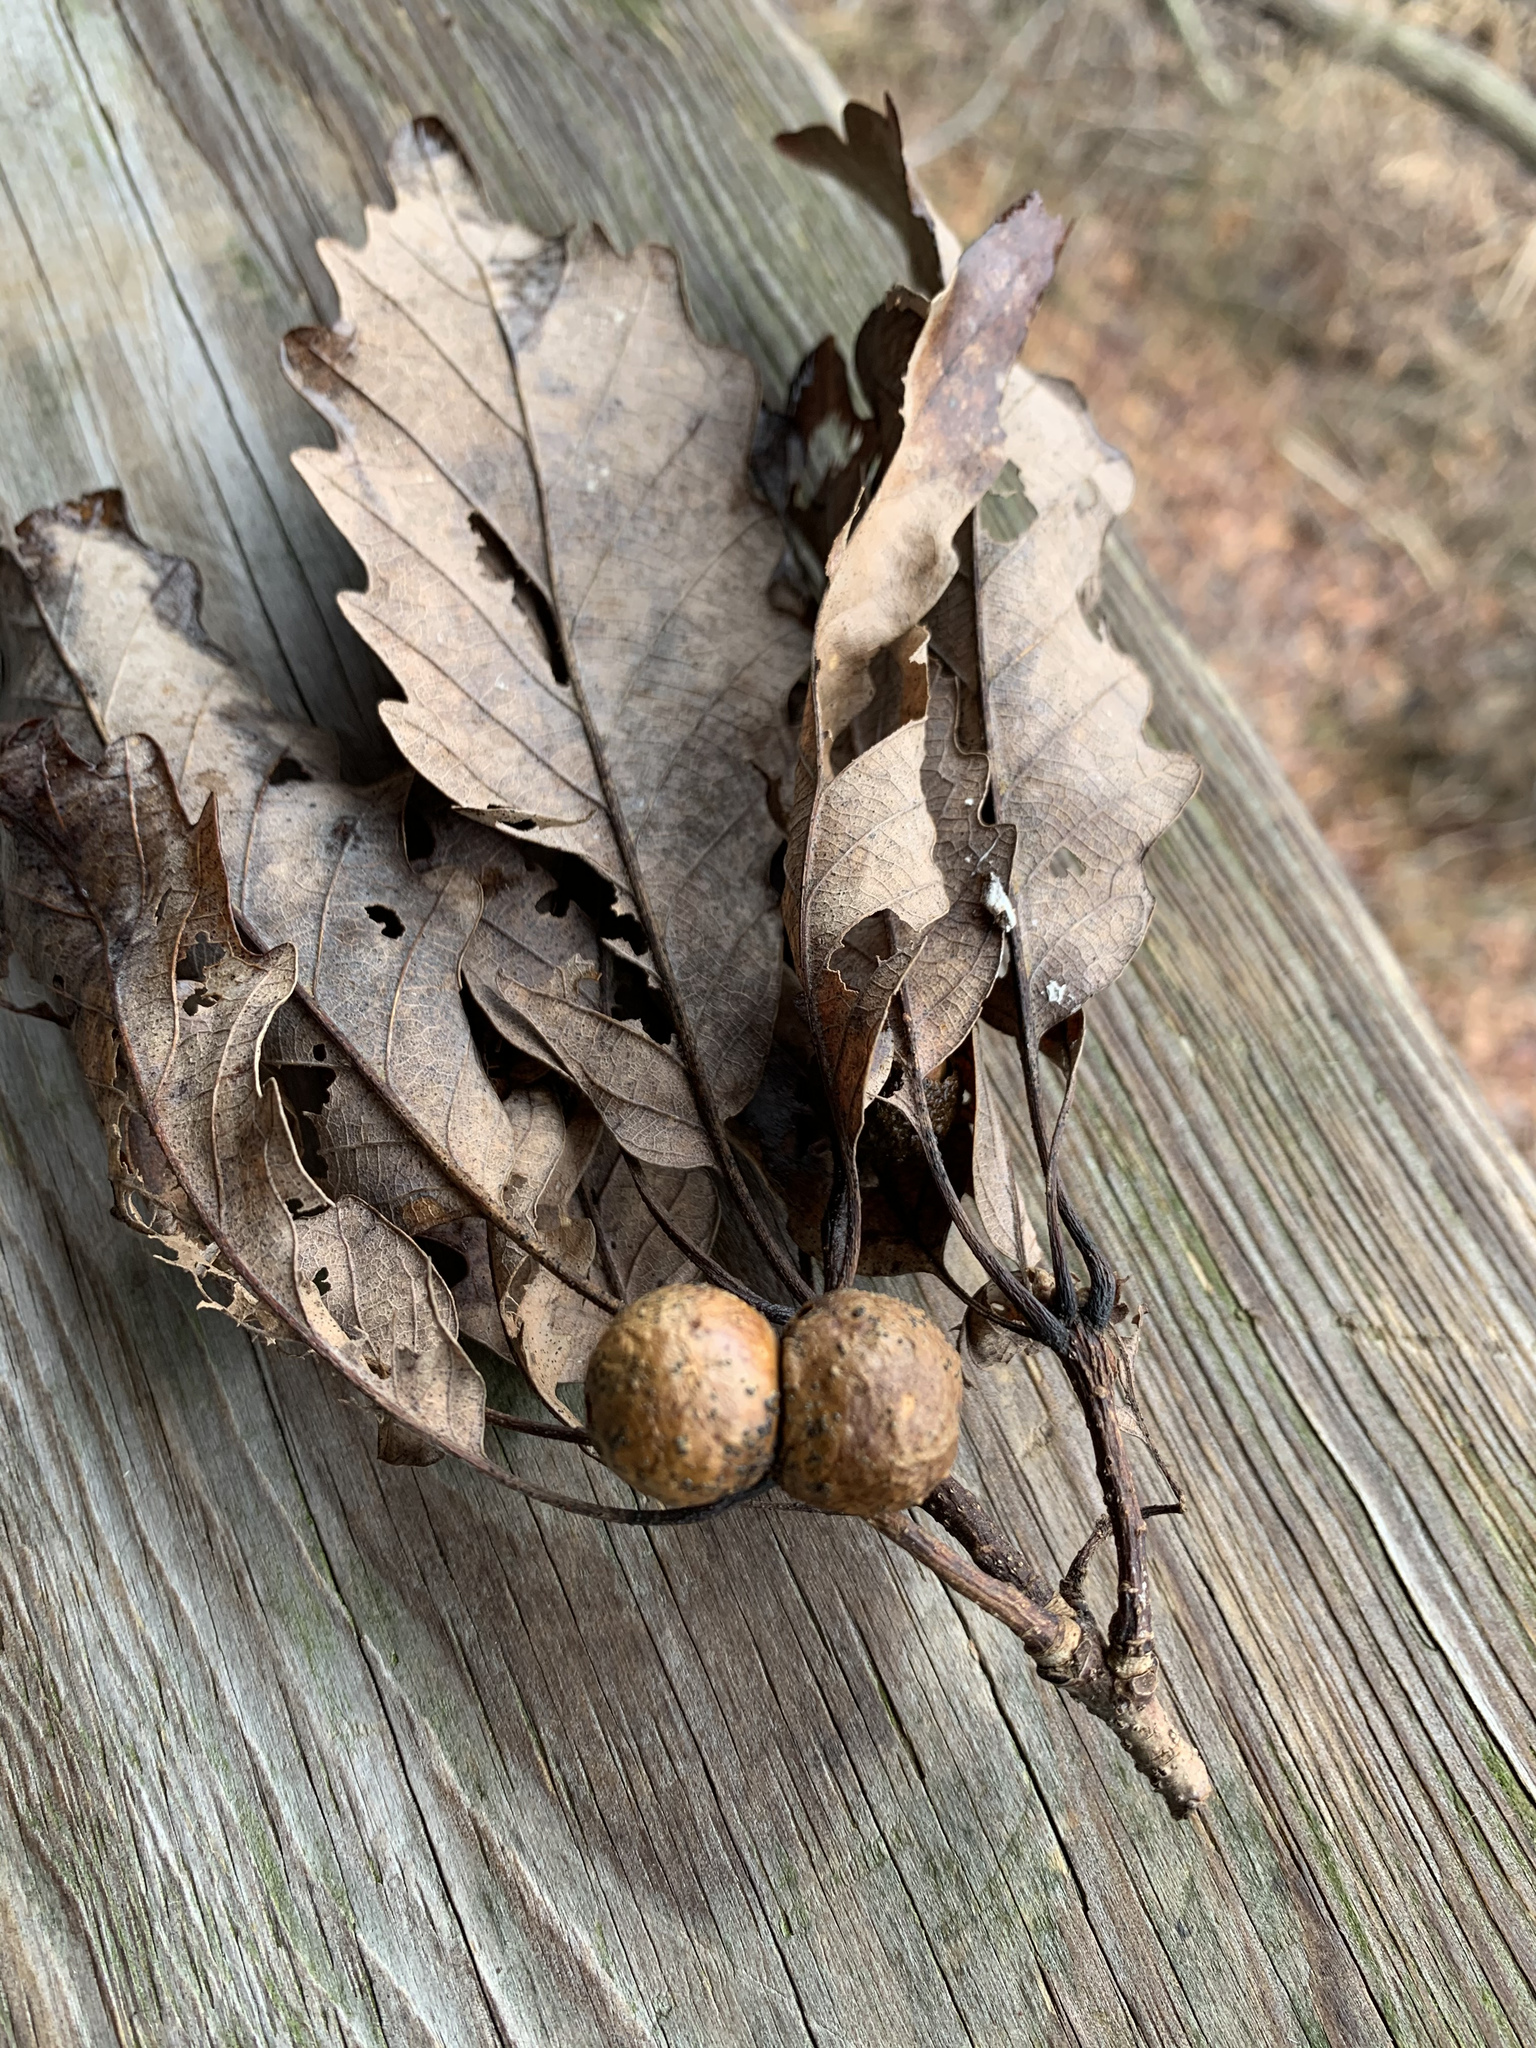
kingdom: Animalia
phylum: Arthropoda
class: Insecta
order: Hymenoptera
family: Cynipidae
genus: Disholcaspis
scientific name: Disholcaspis quercusglobulus
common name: Round bullet gall wasp
